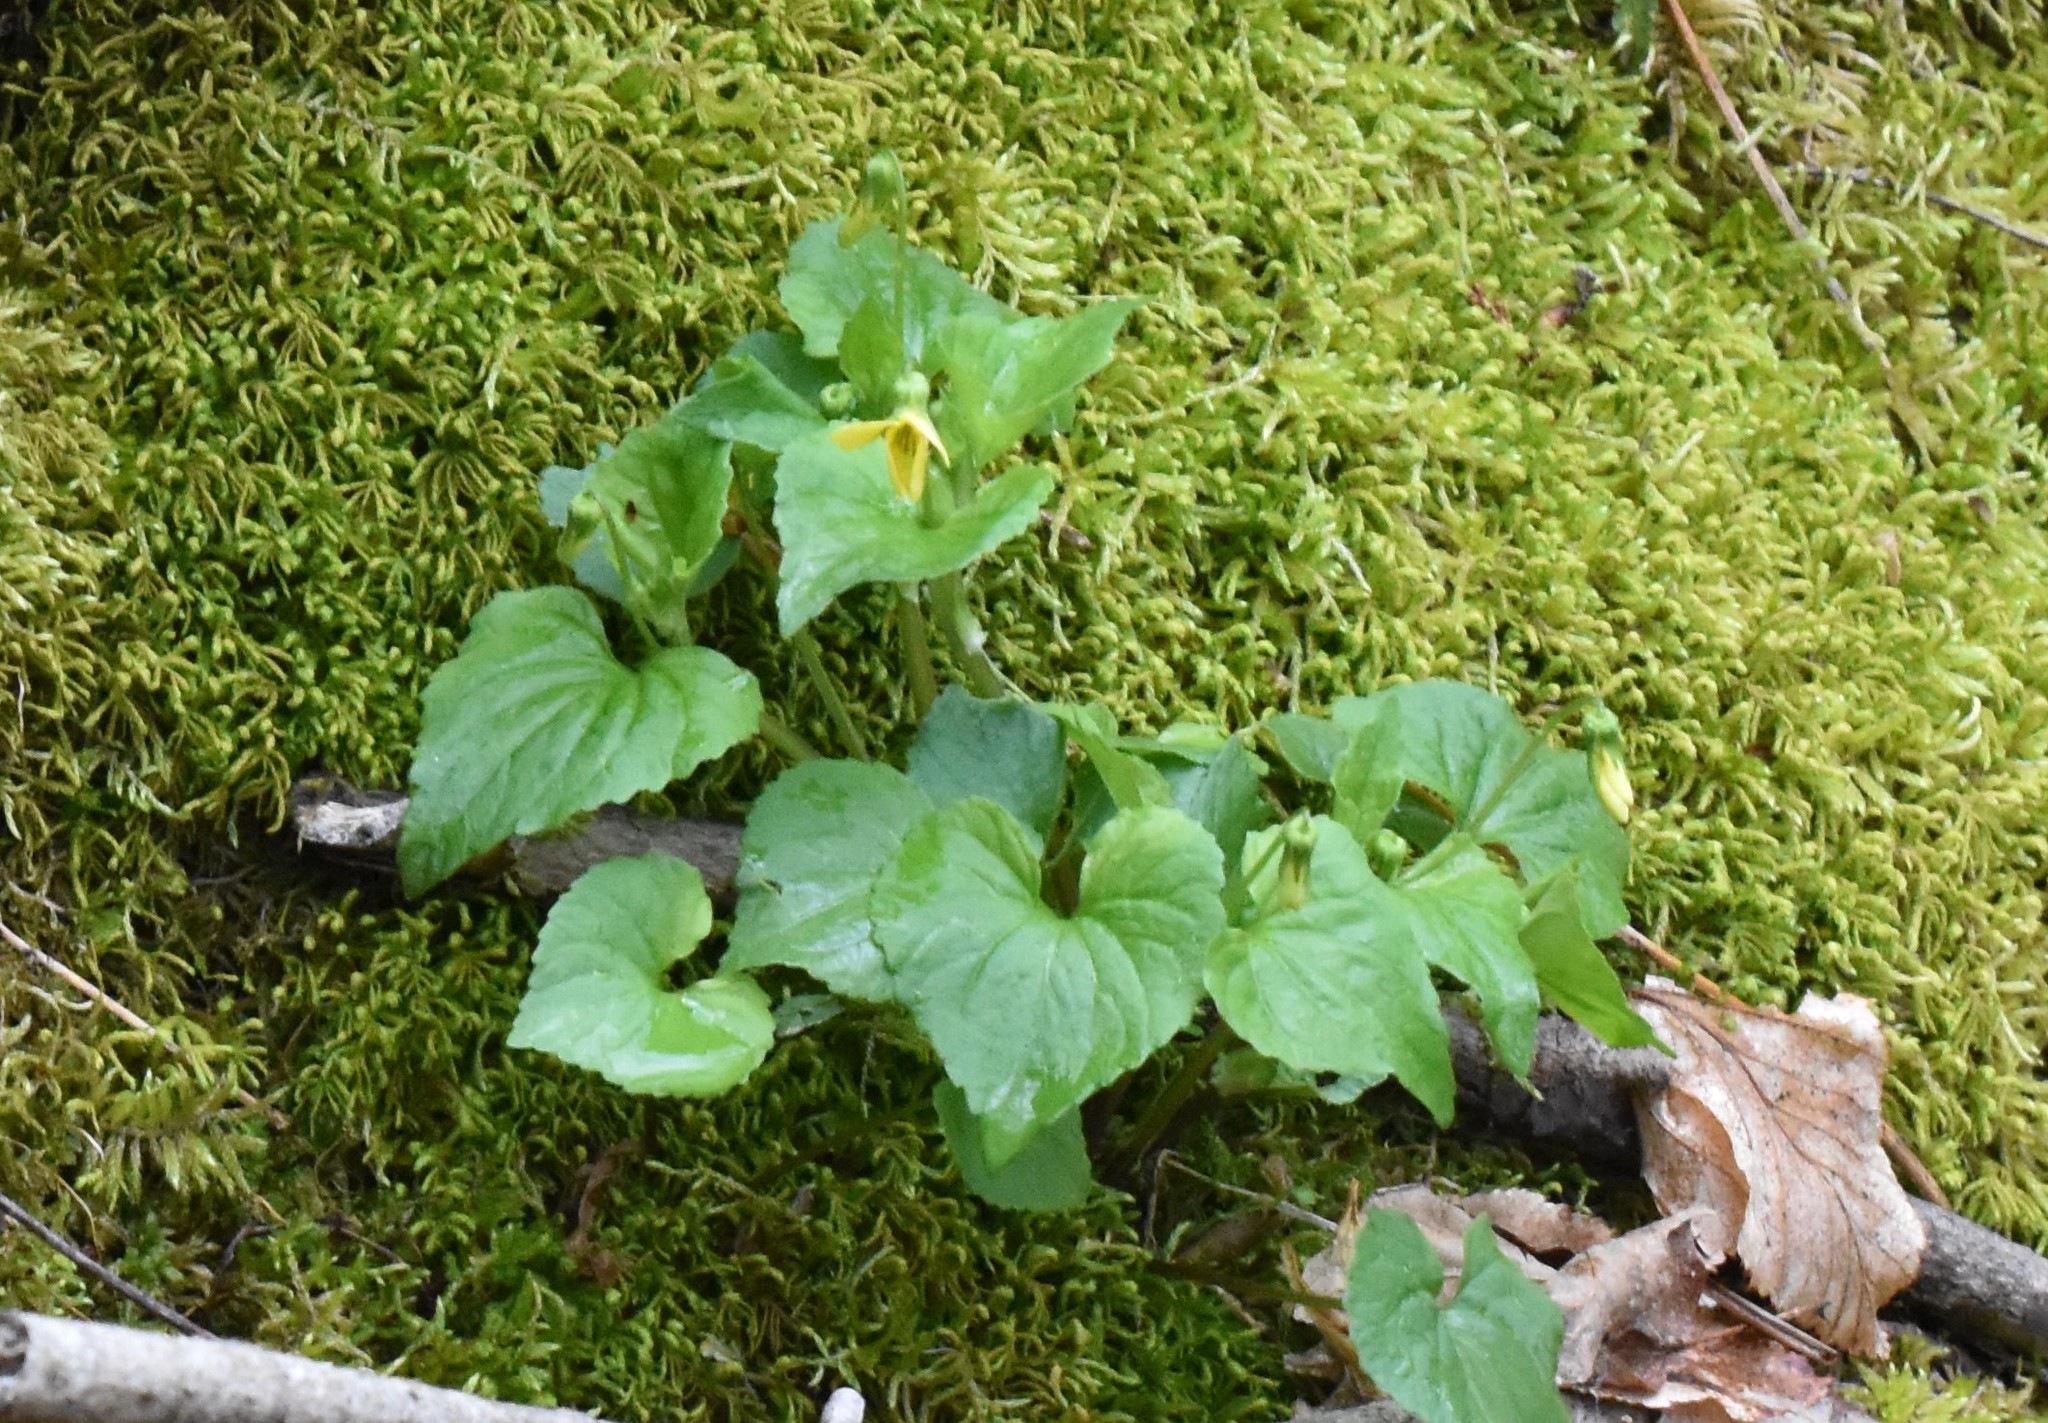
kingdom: Plantae
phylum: Tracheophyta
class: Magnoliopsida
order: Malpighiales
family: Violaceae
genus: Viola
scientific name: Viola eriocarpa
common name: Smooth yellow violet
